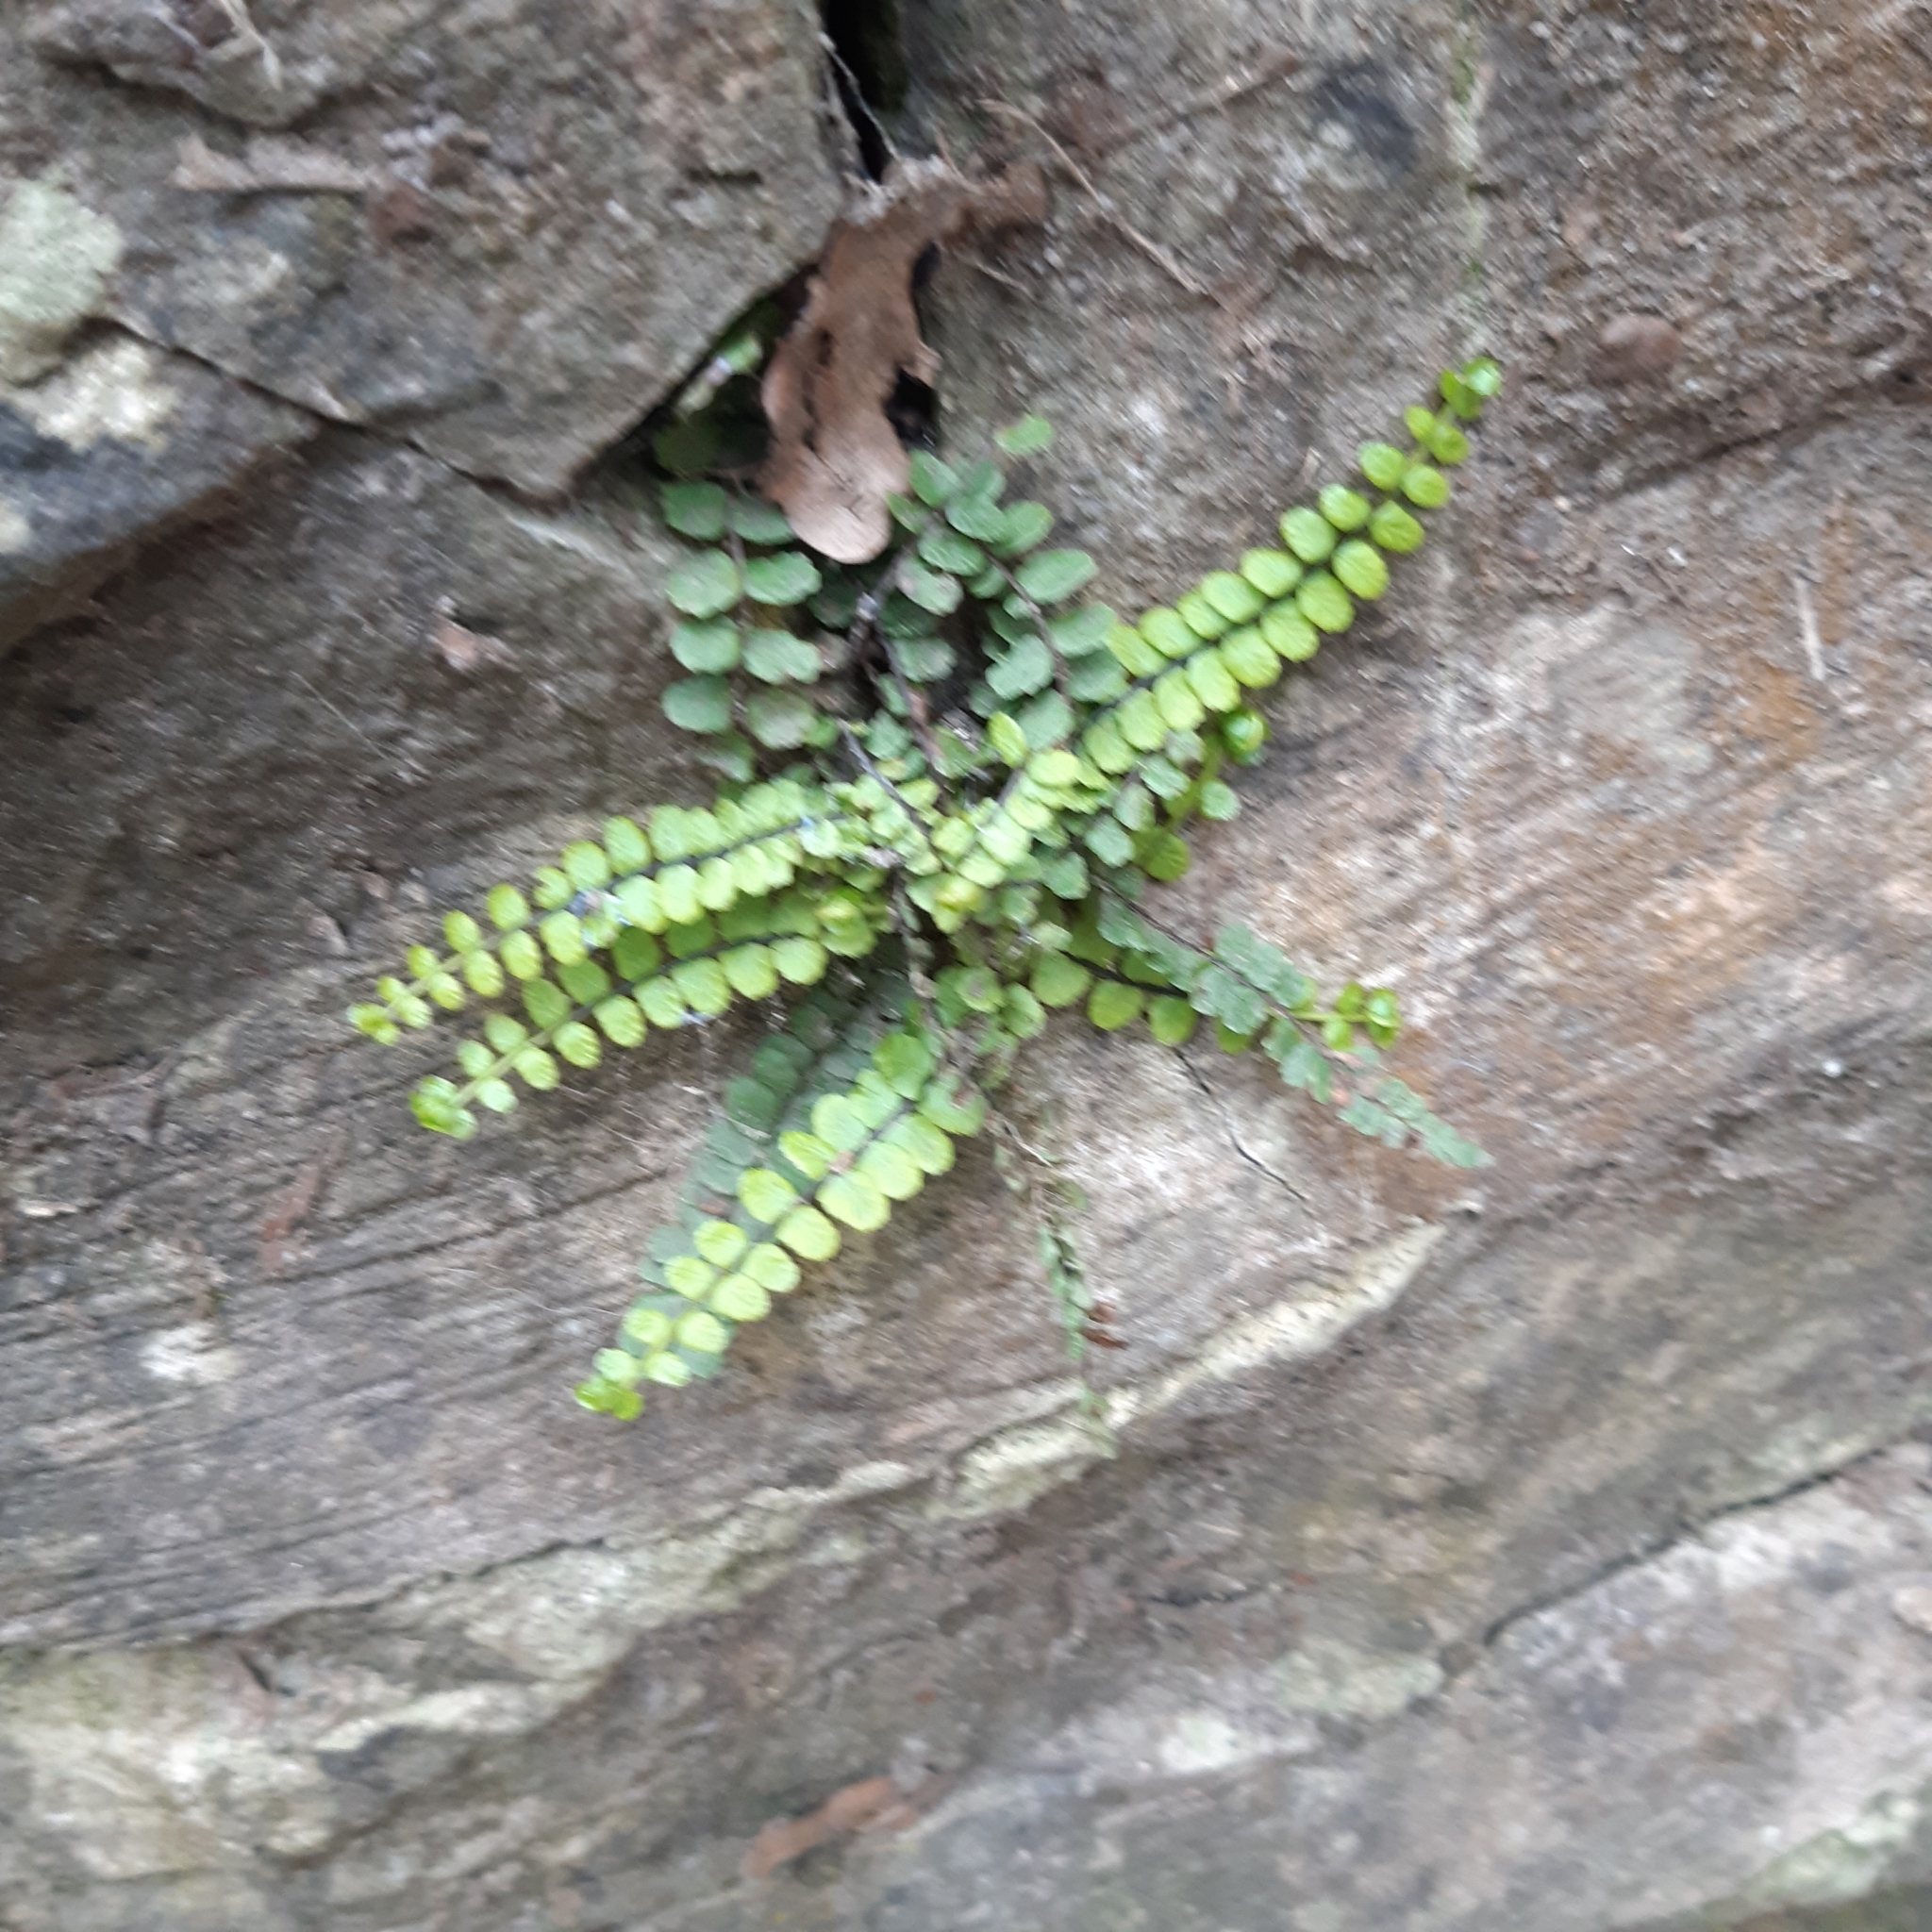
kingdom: Plantae
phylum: Tracheophyta
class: Polypodiopsida
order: Polypodiales
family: Aspleniaceae
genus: Asplenium
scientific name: Asplenium trichomanes
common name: Maidenhair spleenwort
